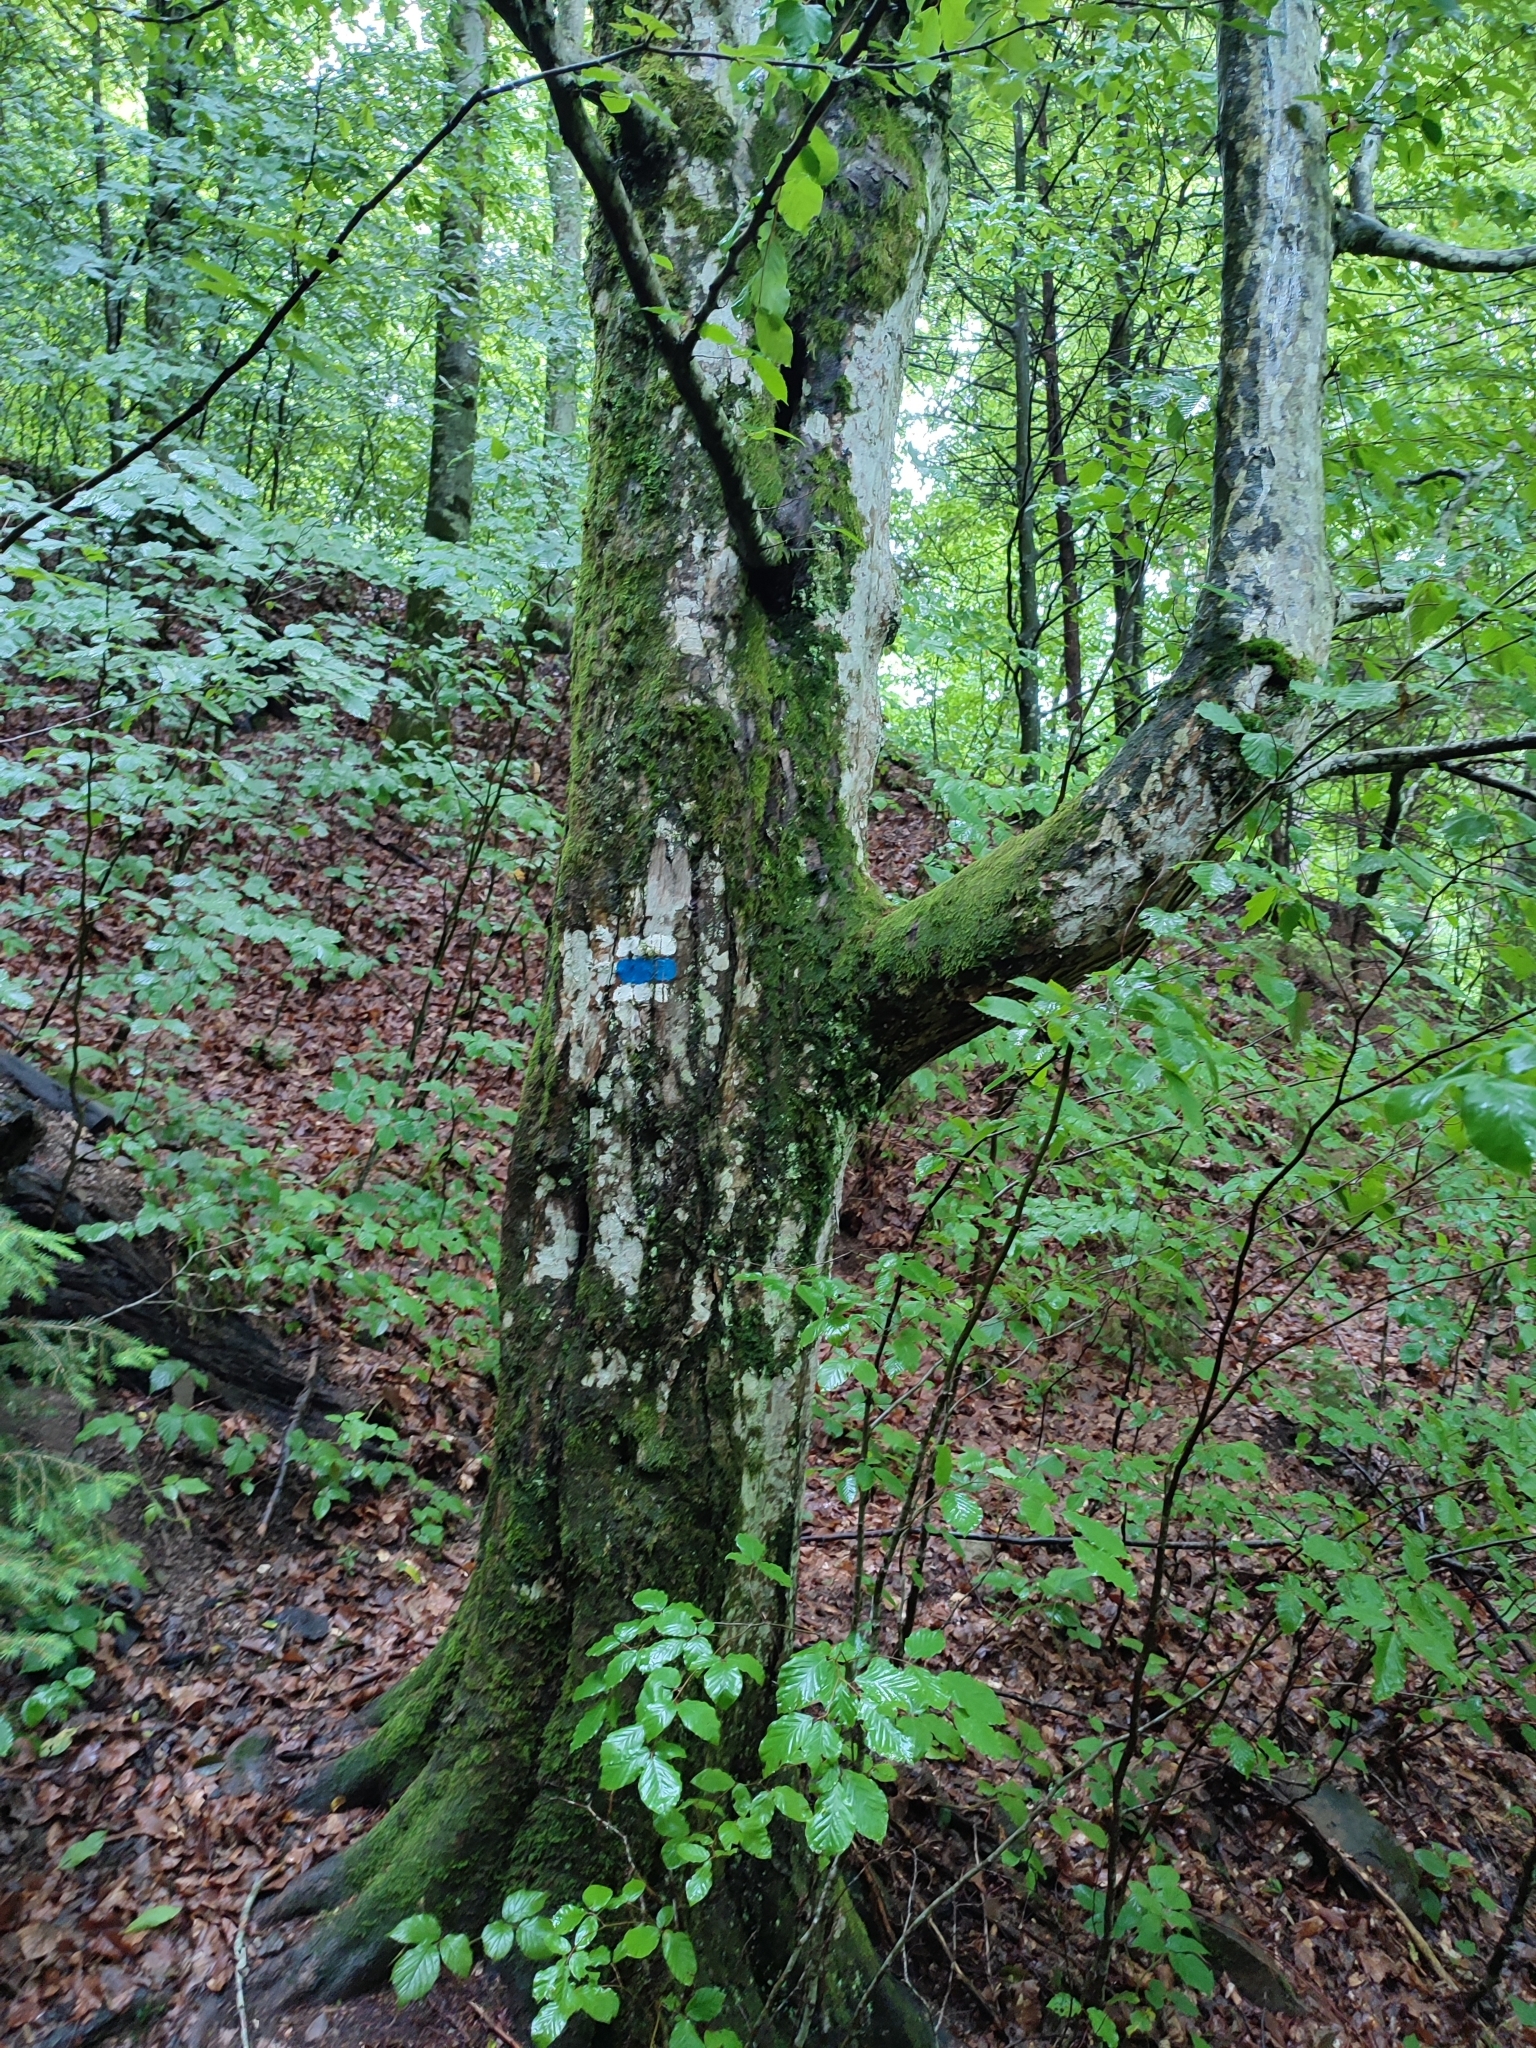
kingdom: Plantae
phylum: Tracheophyta
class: Magnoliopsida
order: Fagales
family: Fagaceae
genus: Fagus
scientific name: Fagus sylvatica
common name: Beech
